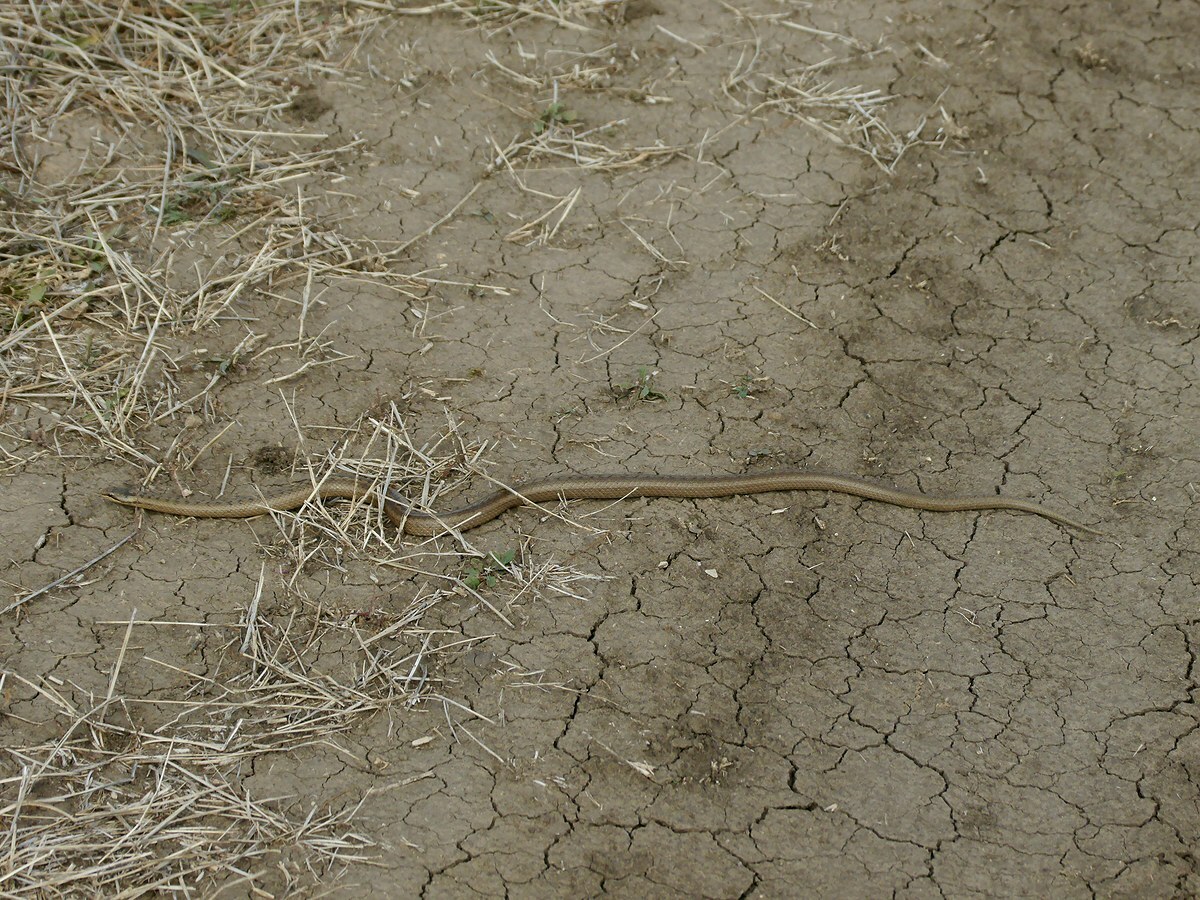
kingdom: Animalia
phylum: Chordata
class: Squamata
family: Colubridae
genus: Coronella
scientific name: Coronella austriaca
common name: Smooth snake
